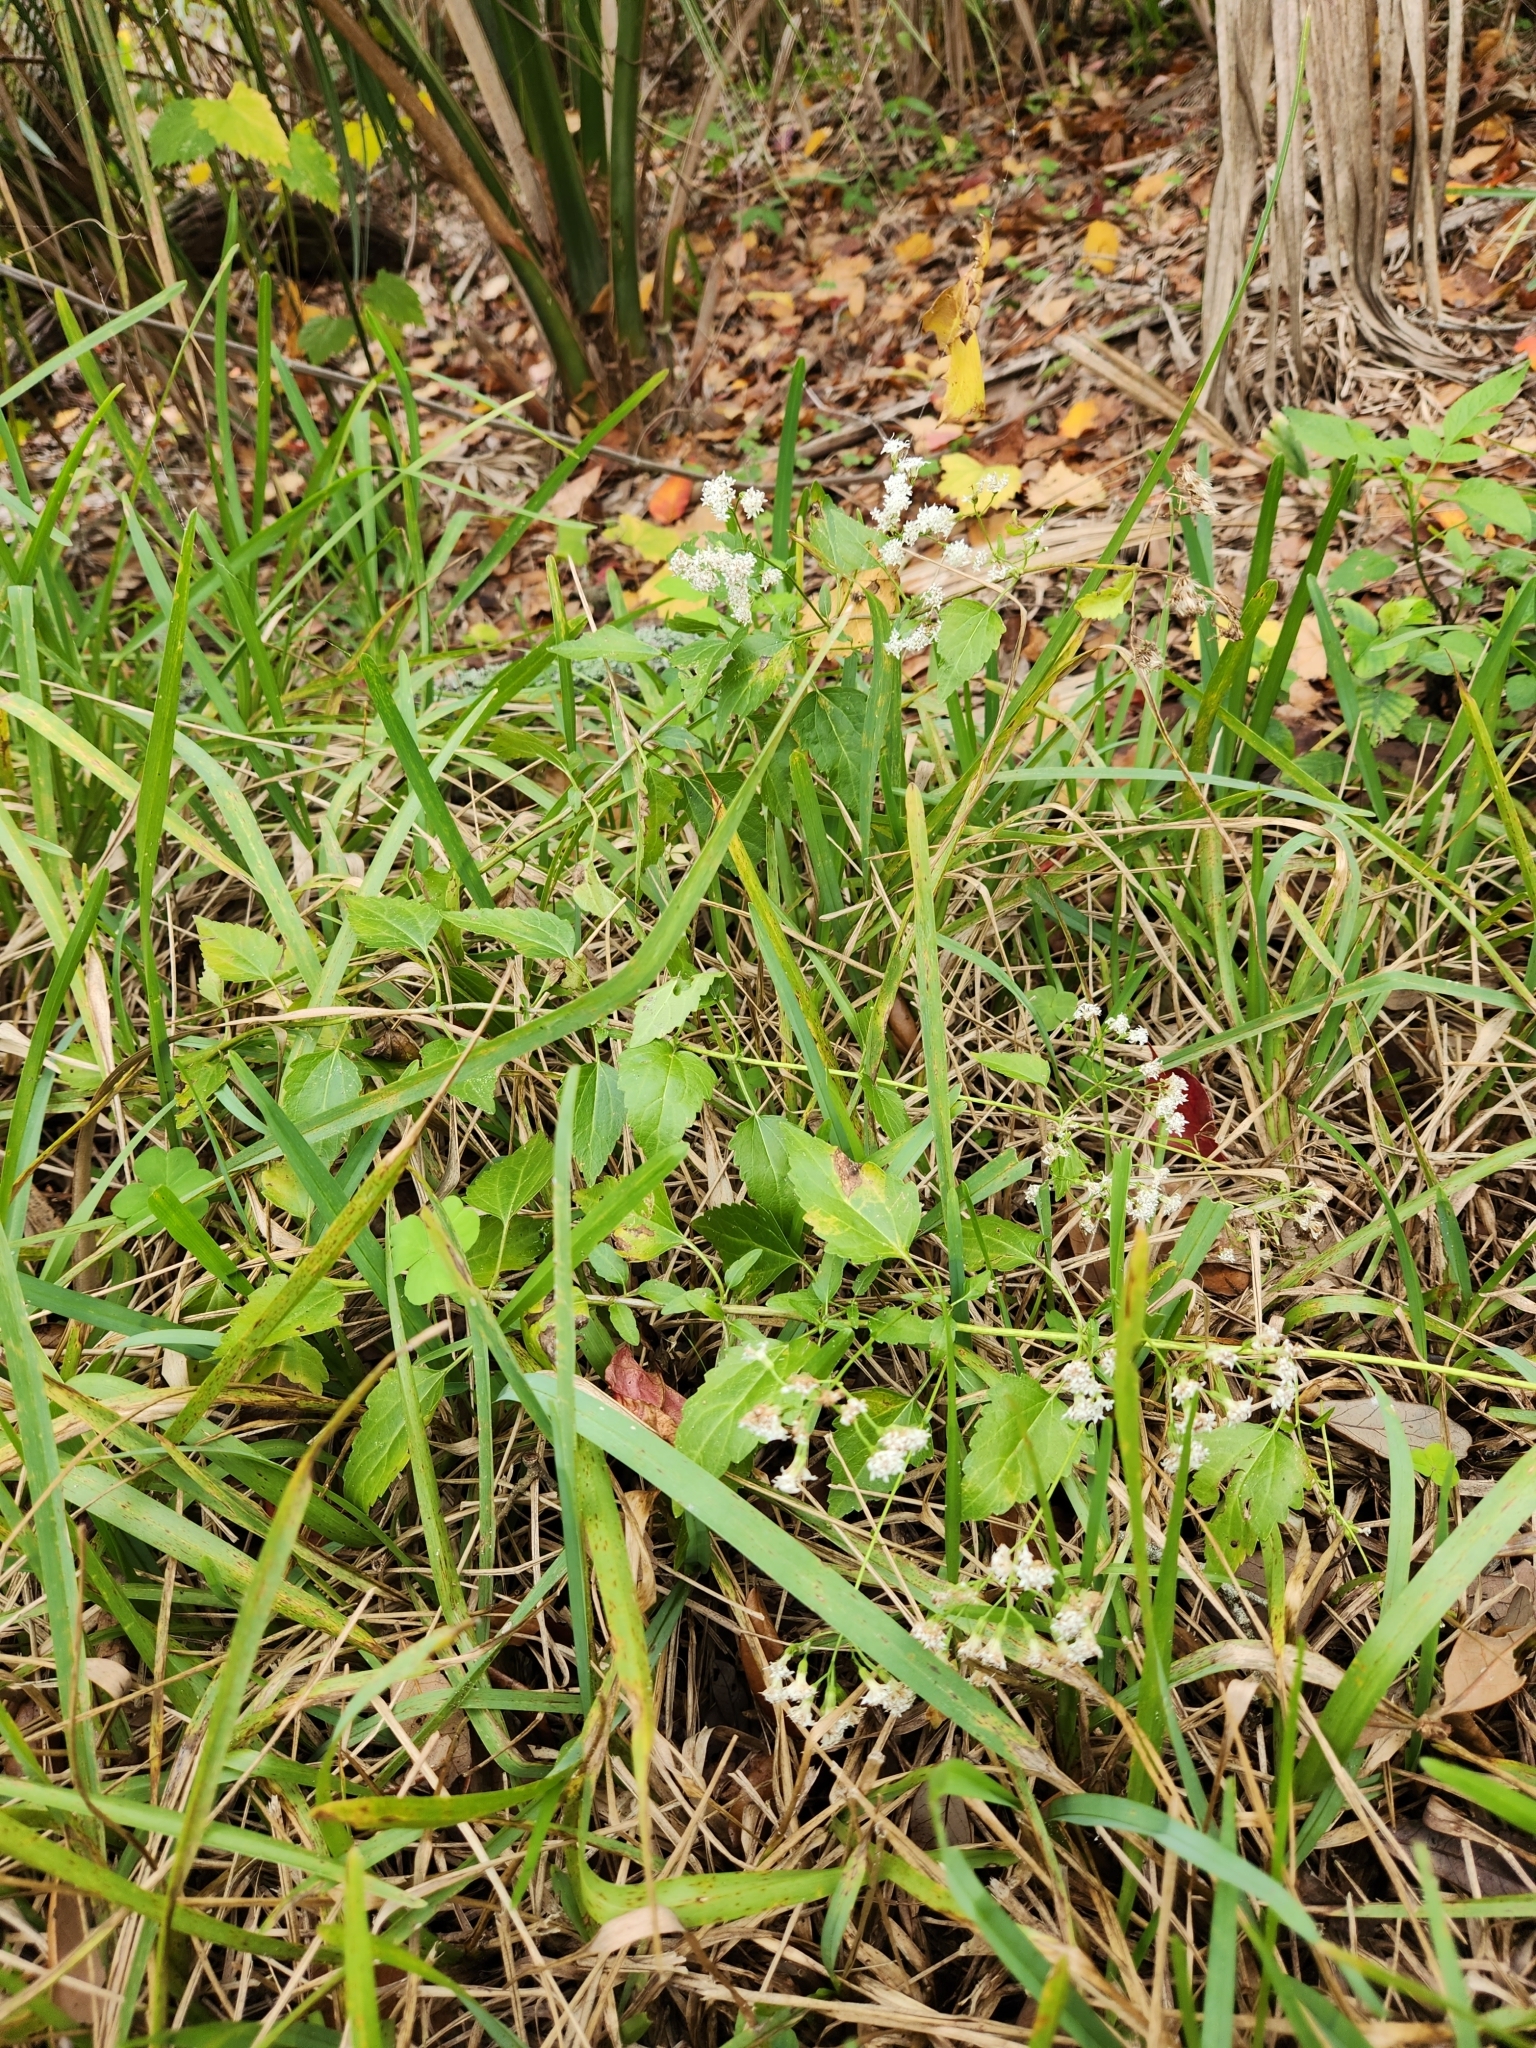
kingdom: Plantae
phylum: Tracheophyta
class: Magnoliopsida
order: Asterales
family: Asteraceae
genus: Ageratina
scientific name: Ageratina jucunda
